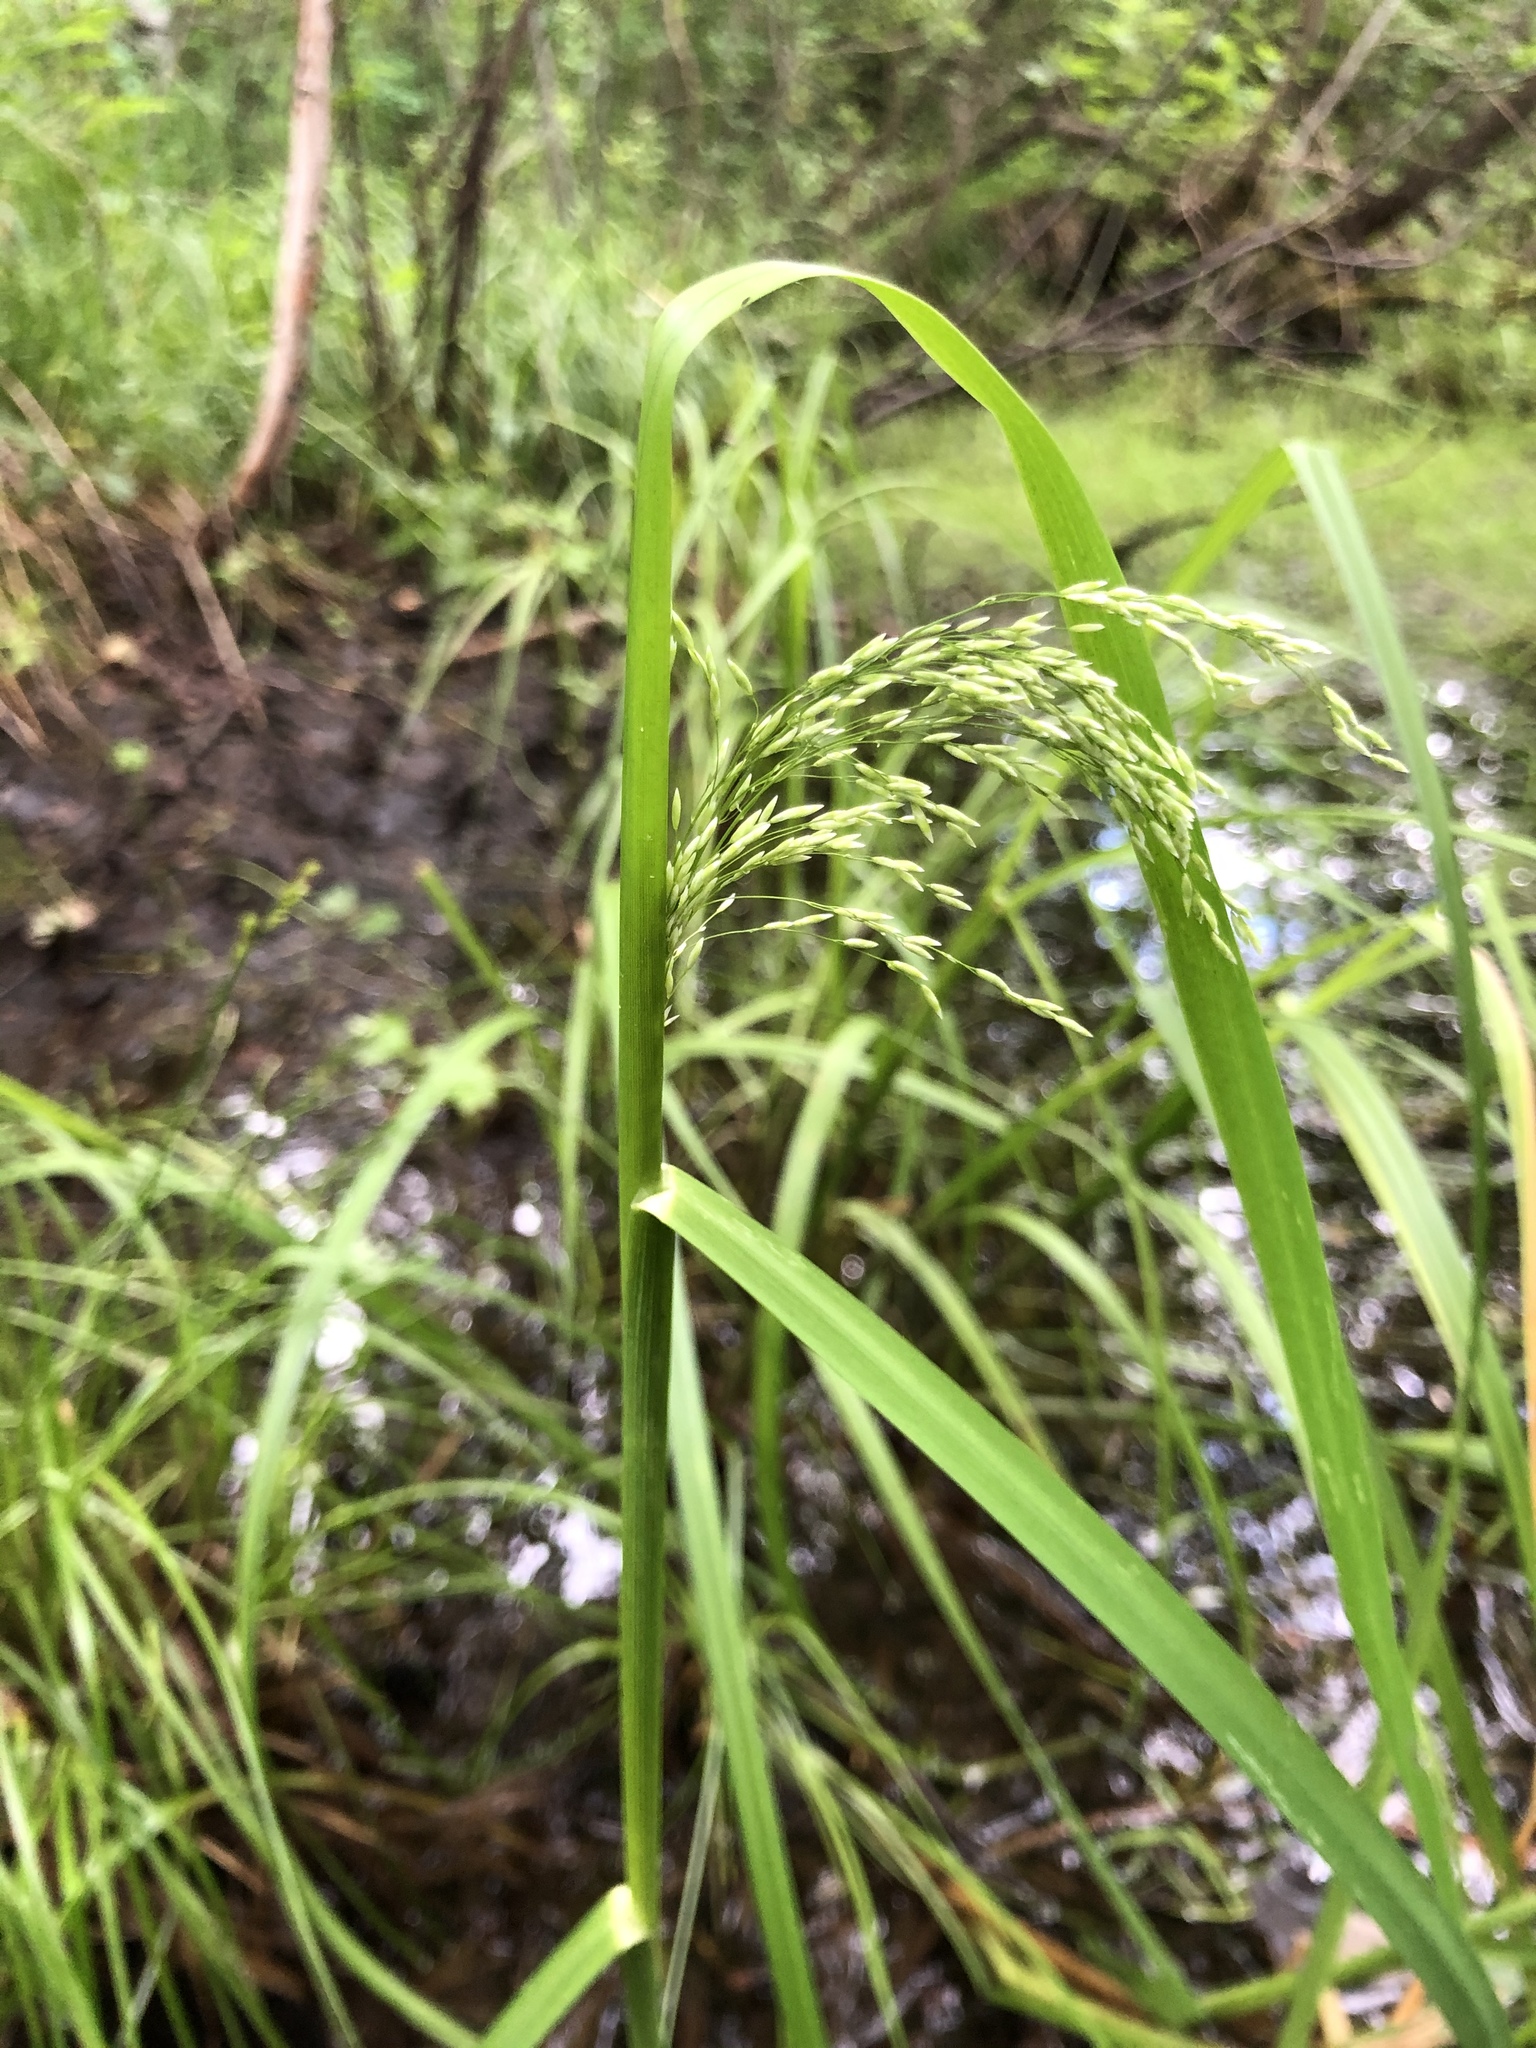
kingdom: Plantae
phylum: Tracheophyta
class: Liliopsida
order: Poales
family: Poaceae
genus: Glyceria
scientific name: Glyceria lithuanica
